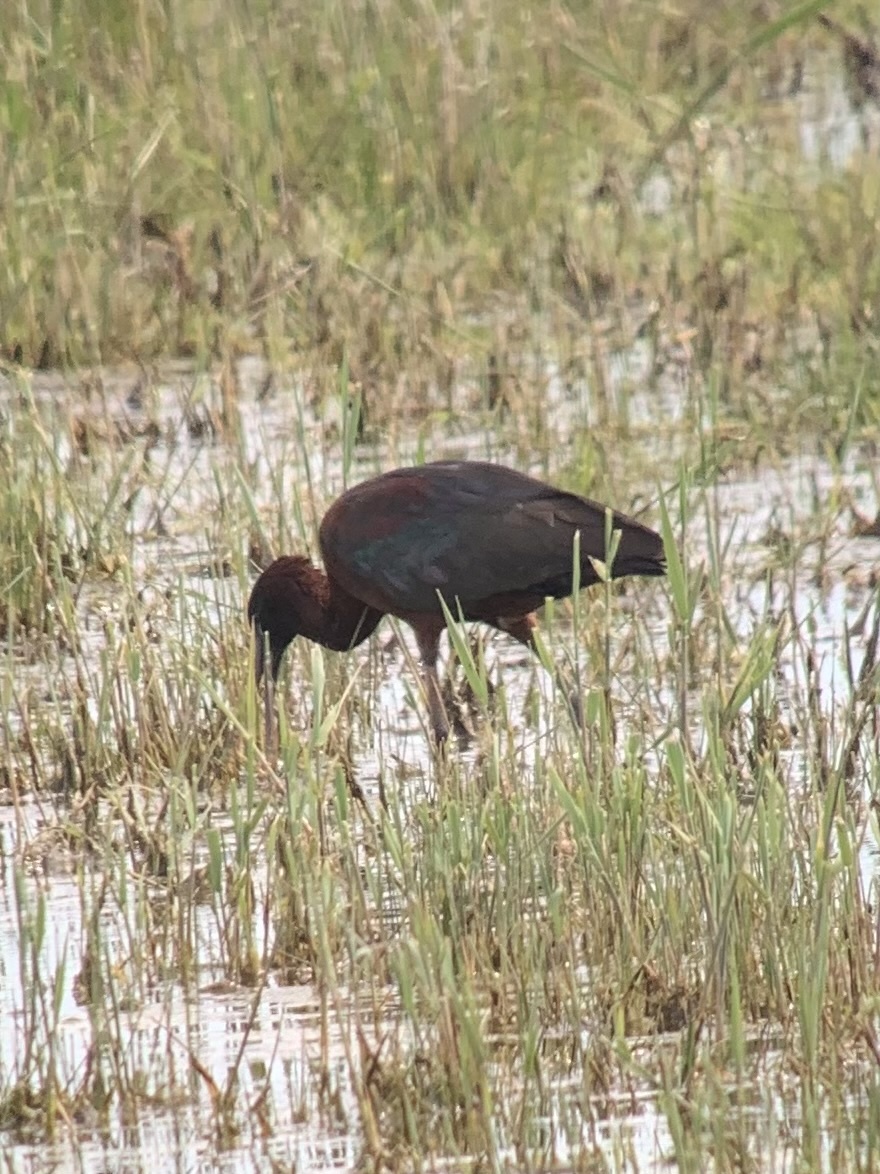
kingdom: Animalia
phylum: Chordata
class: Aves
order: Pelecaniformes
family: Threskiornithidae
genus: Plegadis
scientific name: Plegadis falcinellus
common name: Glossy ibis
